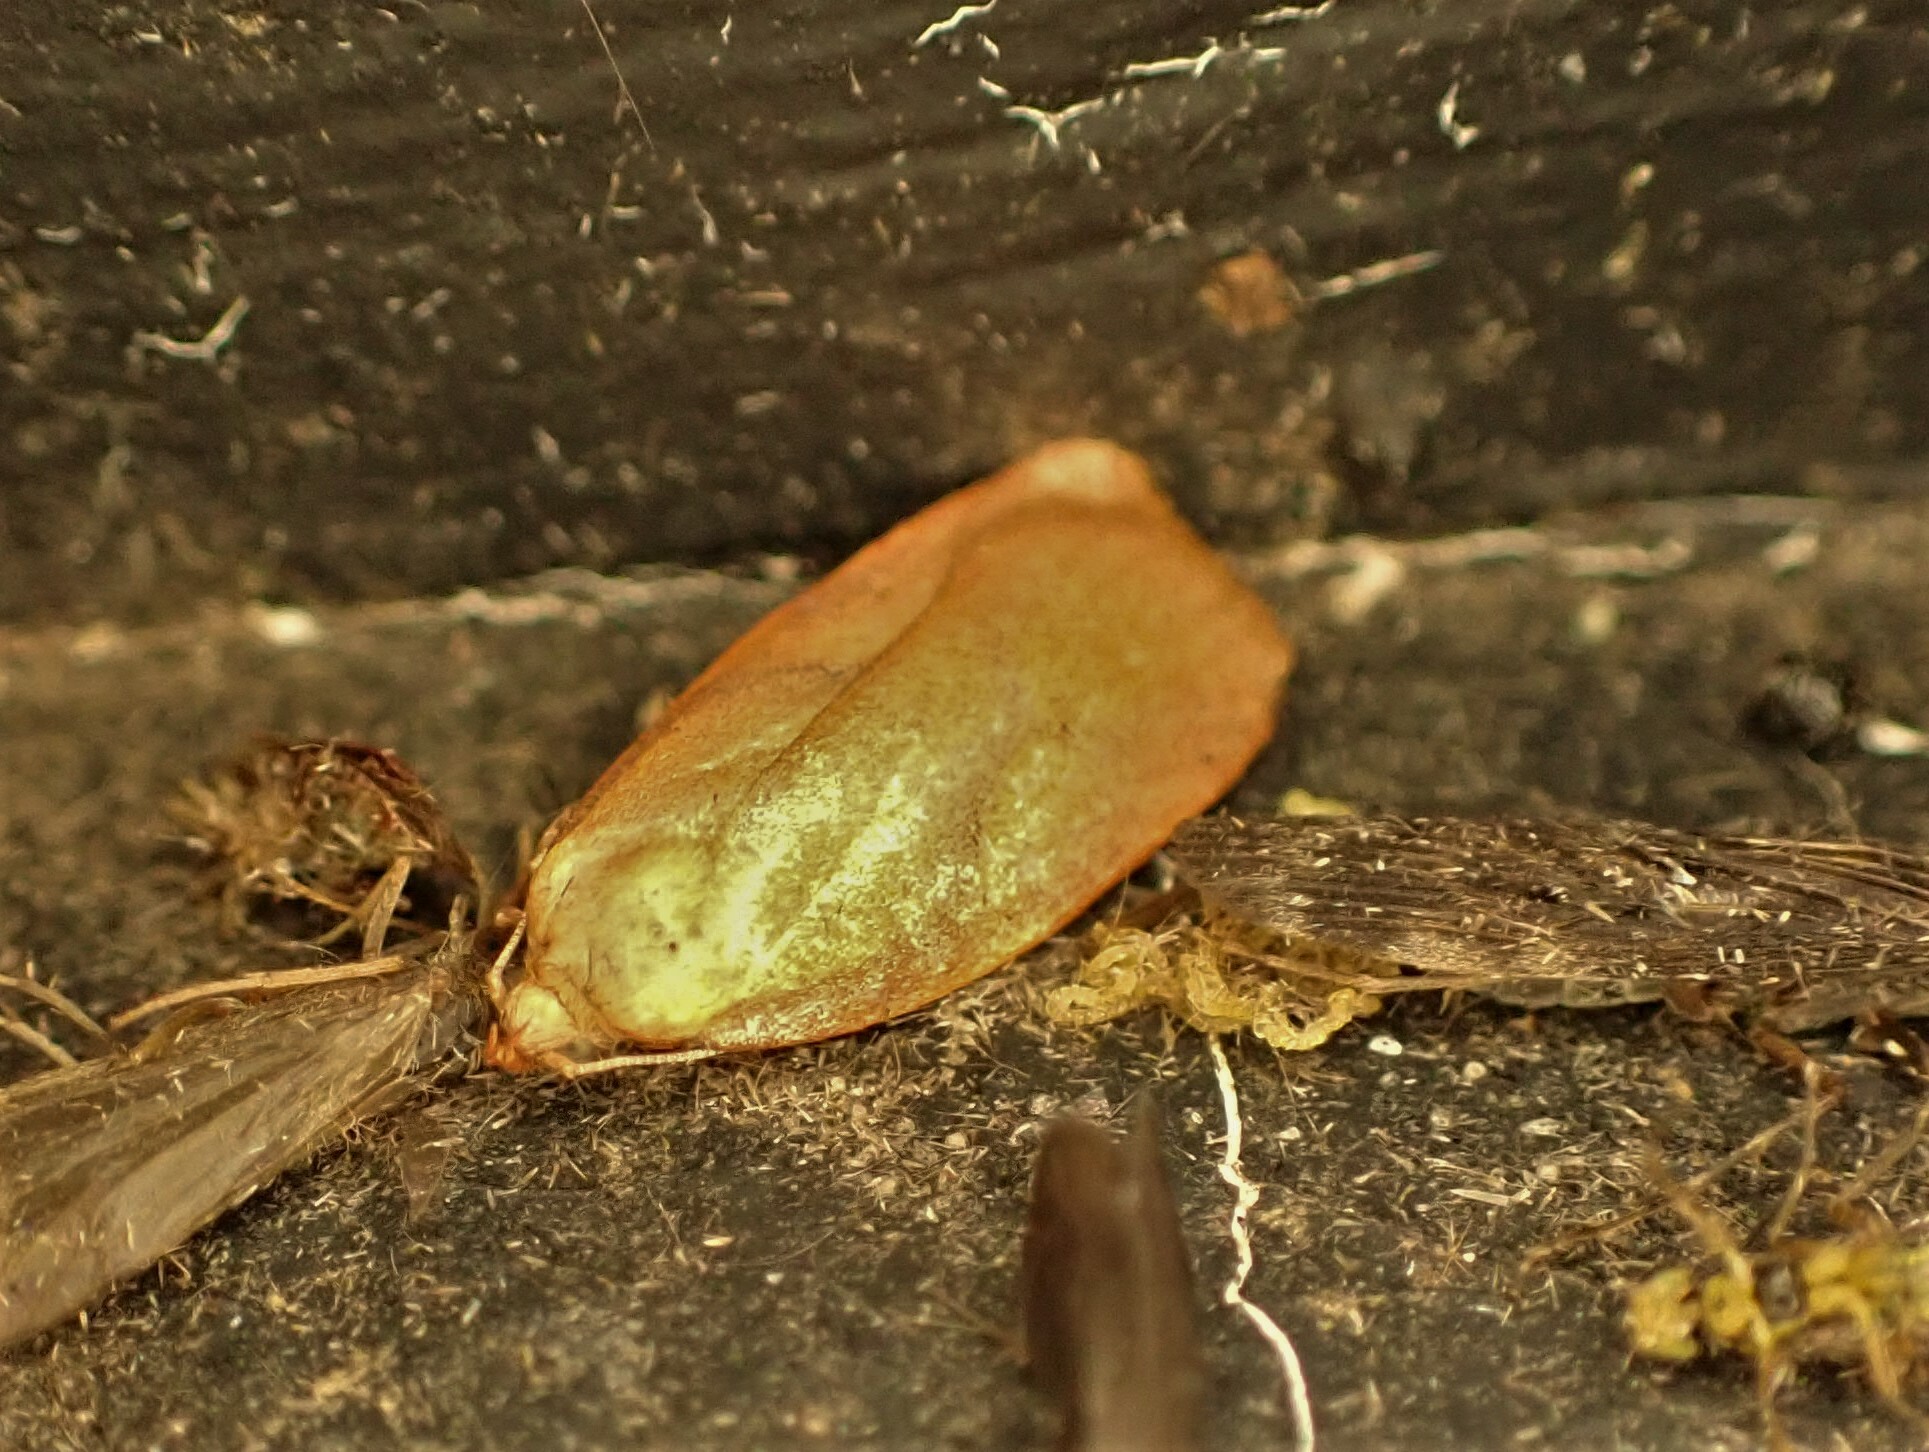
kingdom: Animalia
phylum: Arthropoda
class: Insecta
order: Lepidoptera
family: Depressariidae
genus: Phaeosaces
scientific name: Phaeosaces coarctatella
